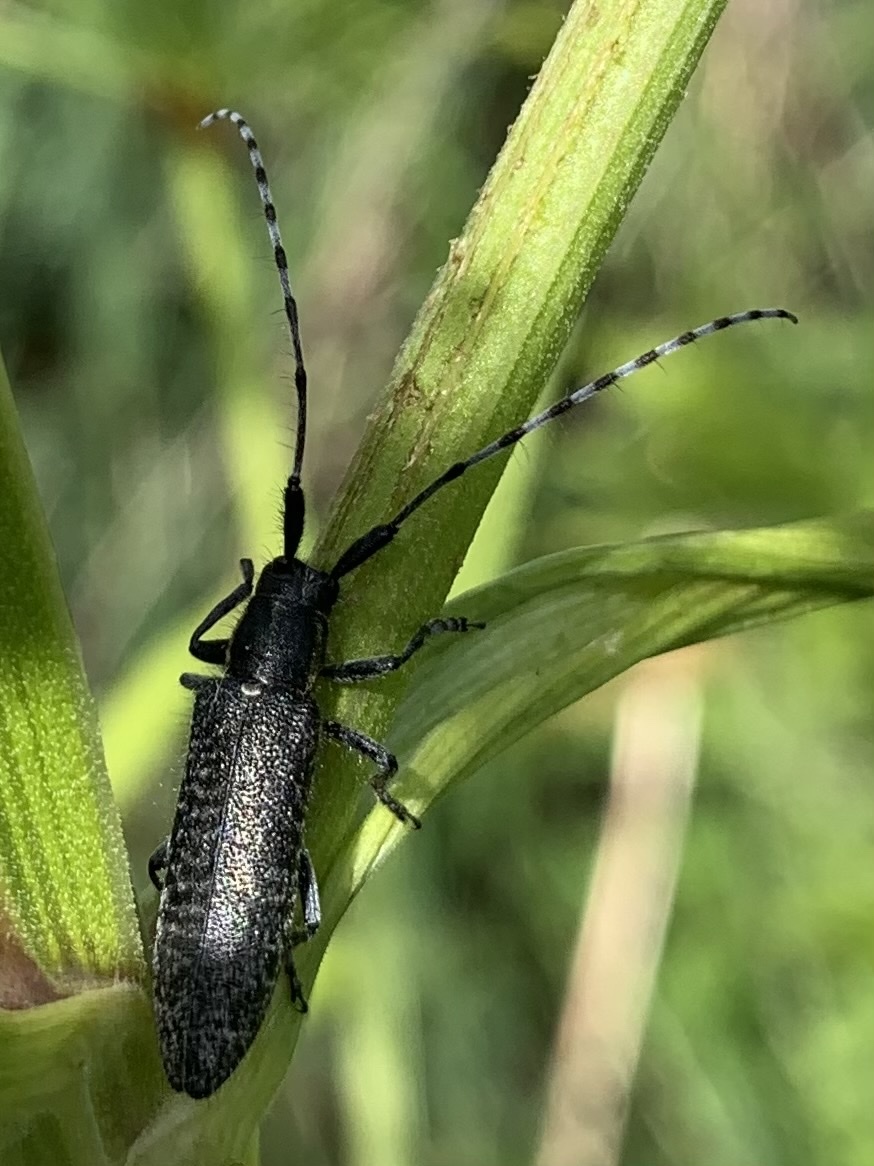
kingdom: Animalia
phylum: Arthropoda
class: Insecta
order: Coleoptera
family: Cerambycidae
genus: Agapanthia
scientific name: Agapanthia villosoviridescens
